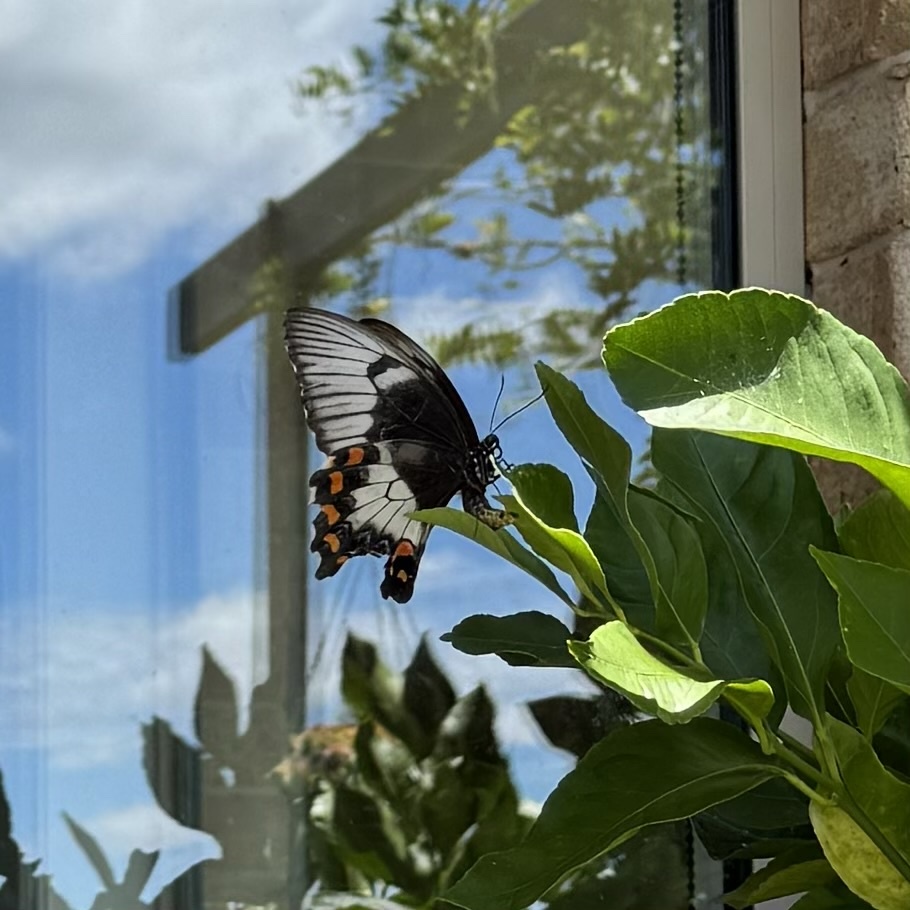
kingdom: Animalia
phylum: Arthropoda
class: Insecta
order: Lepidoptera
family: Papilionidae
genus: Papilio
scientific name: Papilio aegeus
